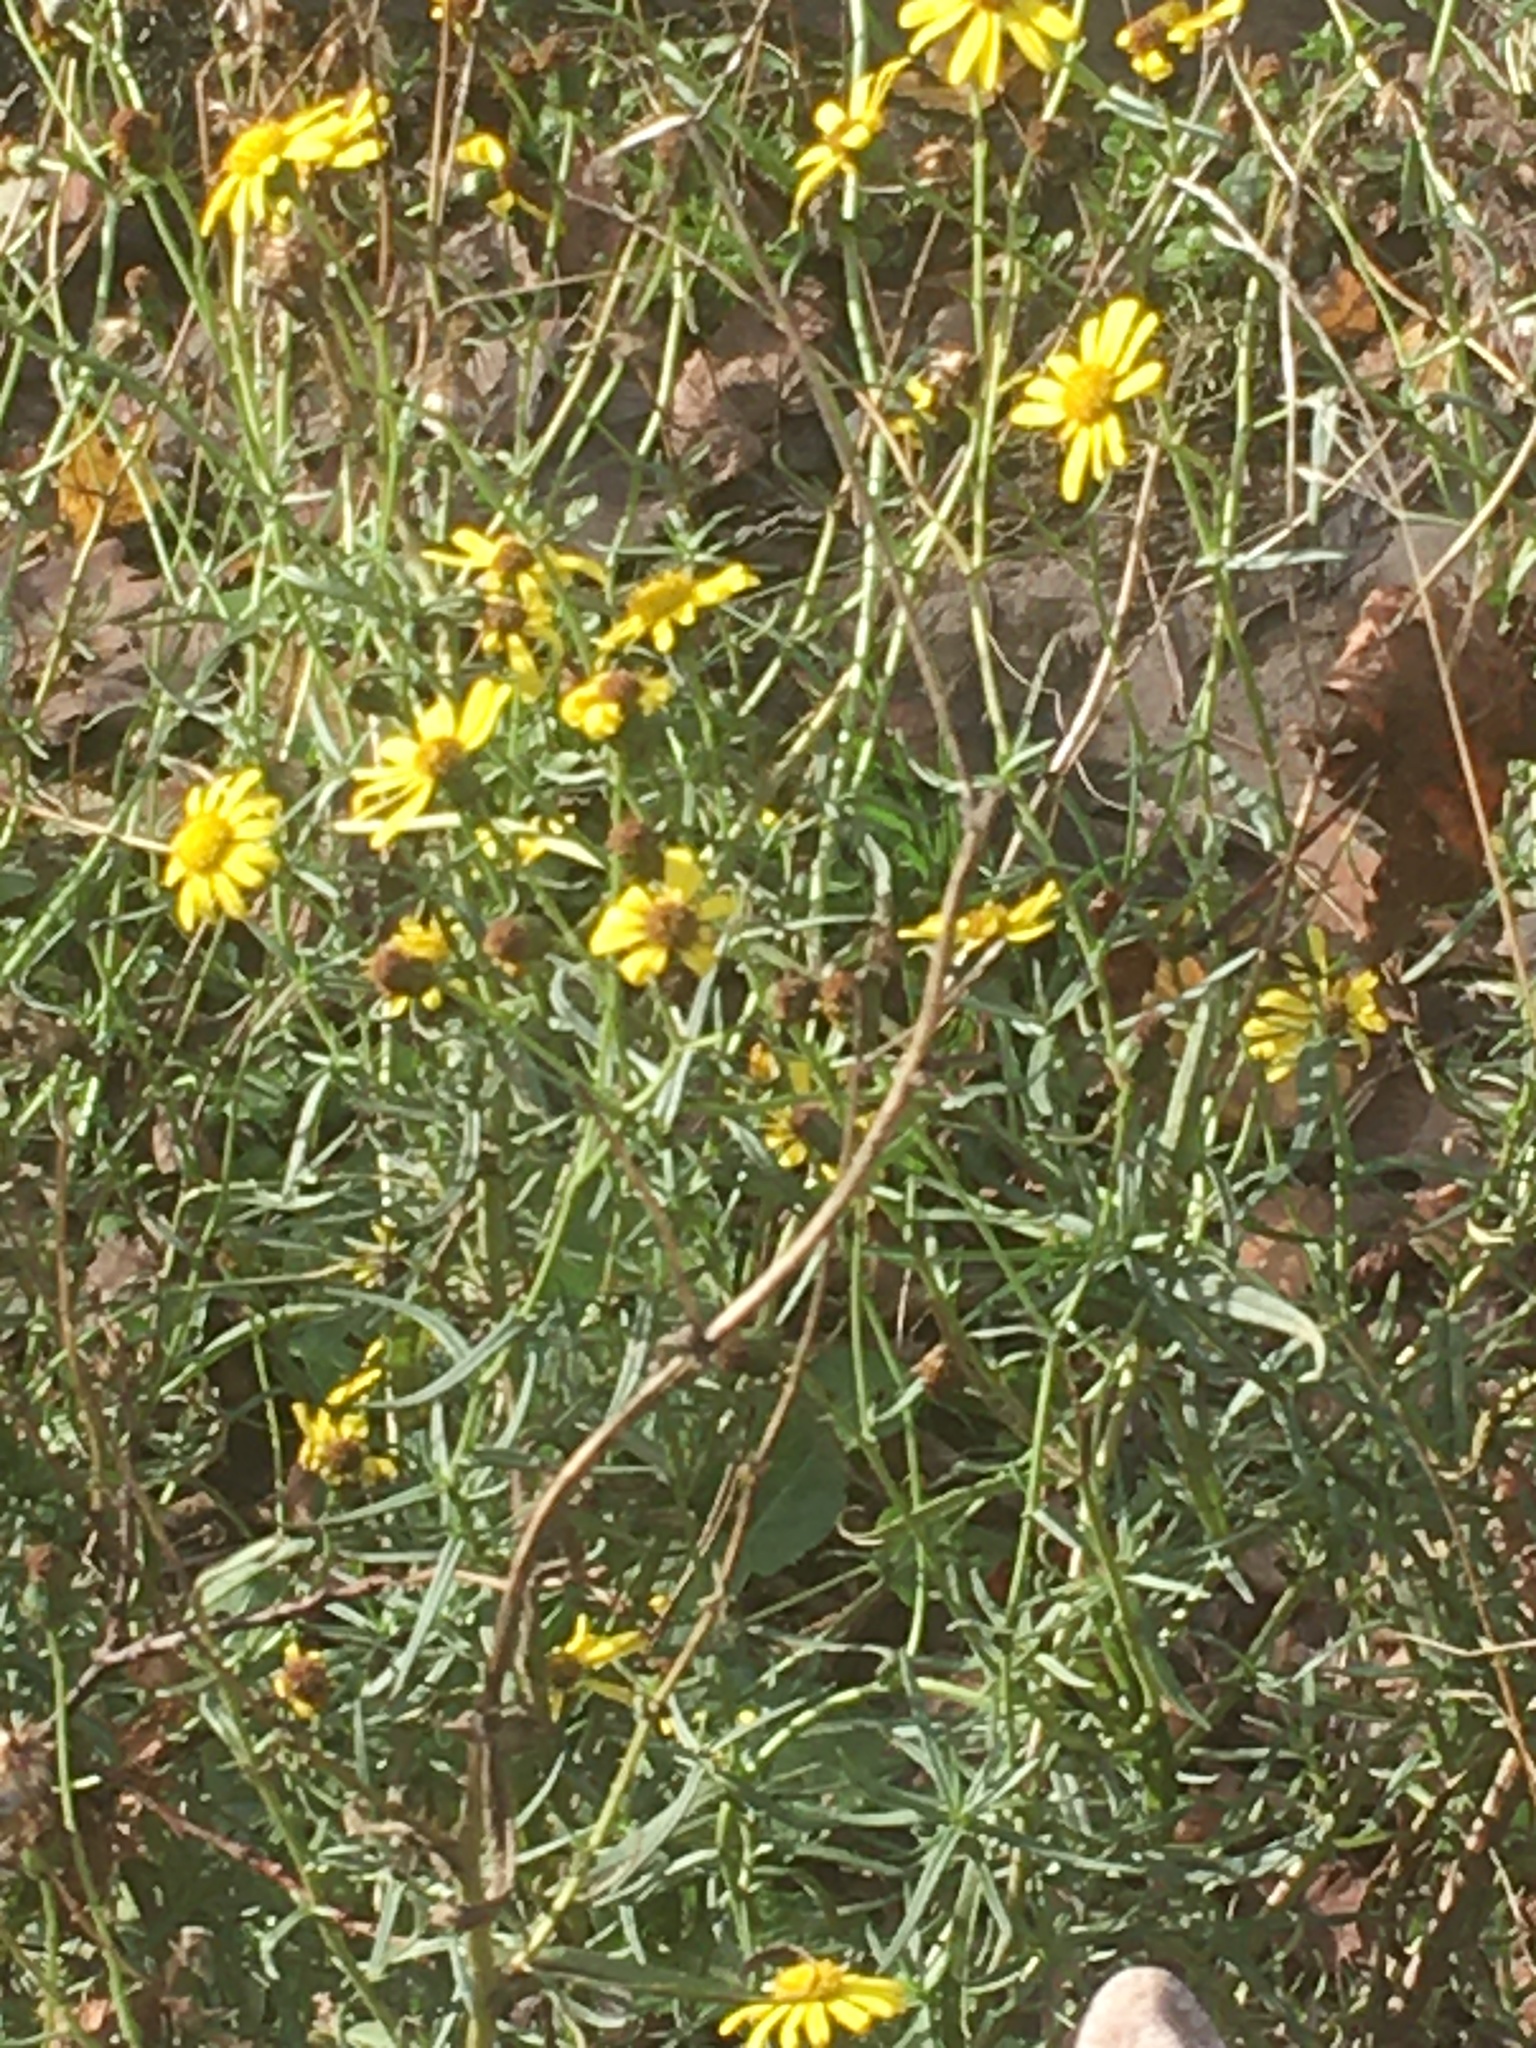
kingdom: Plantae
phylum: Tracheophyta
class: Magnoliopsida
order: Asterales
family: Asteraceae
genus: Senecio
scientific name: Senecio inaequidens
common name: Narrow-leaved ragwort
